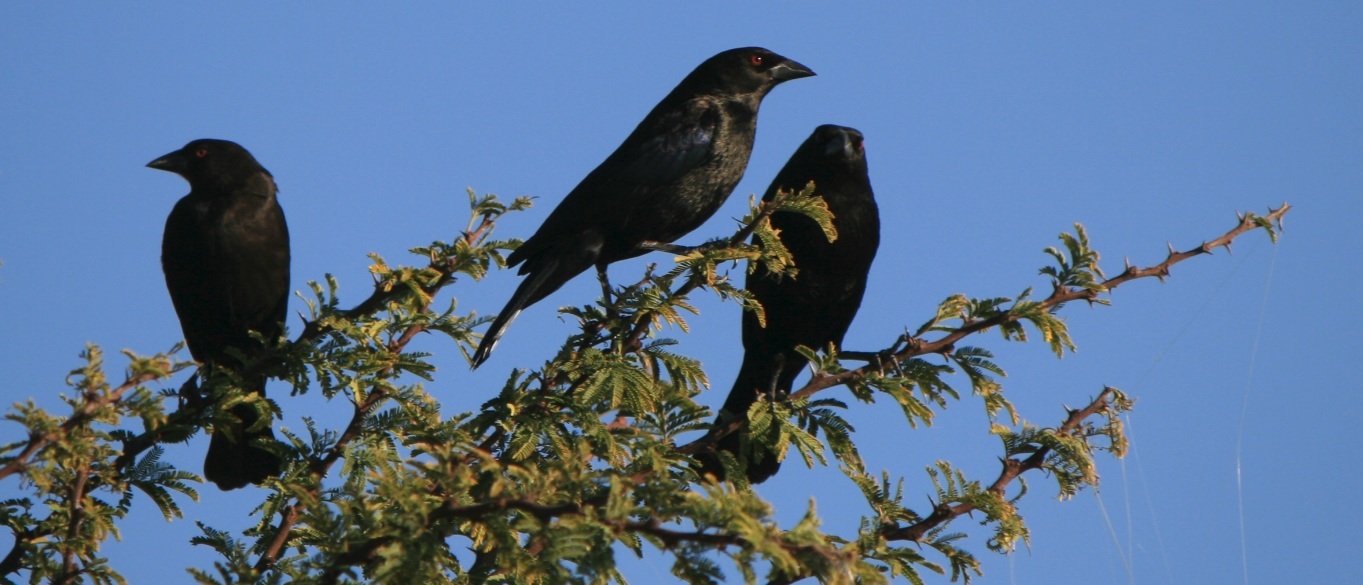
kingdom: Animalia
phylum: Chordata
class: Aves
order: Passeriformes
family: Icteridae
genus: Molothrus
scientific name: Molothrus aeneus
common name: Bronzed cowbird
